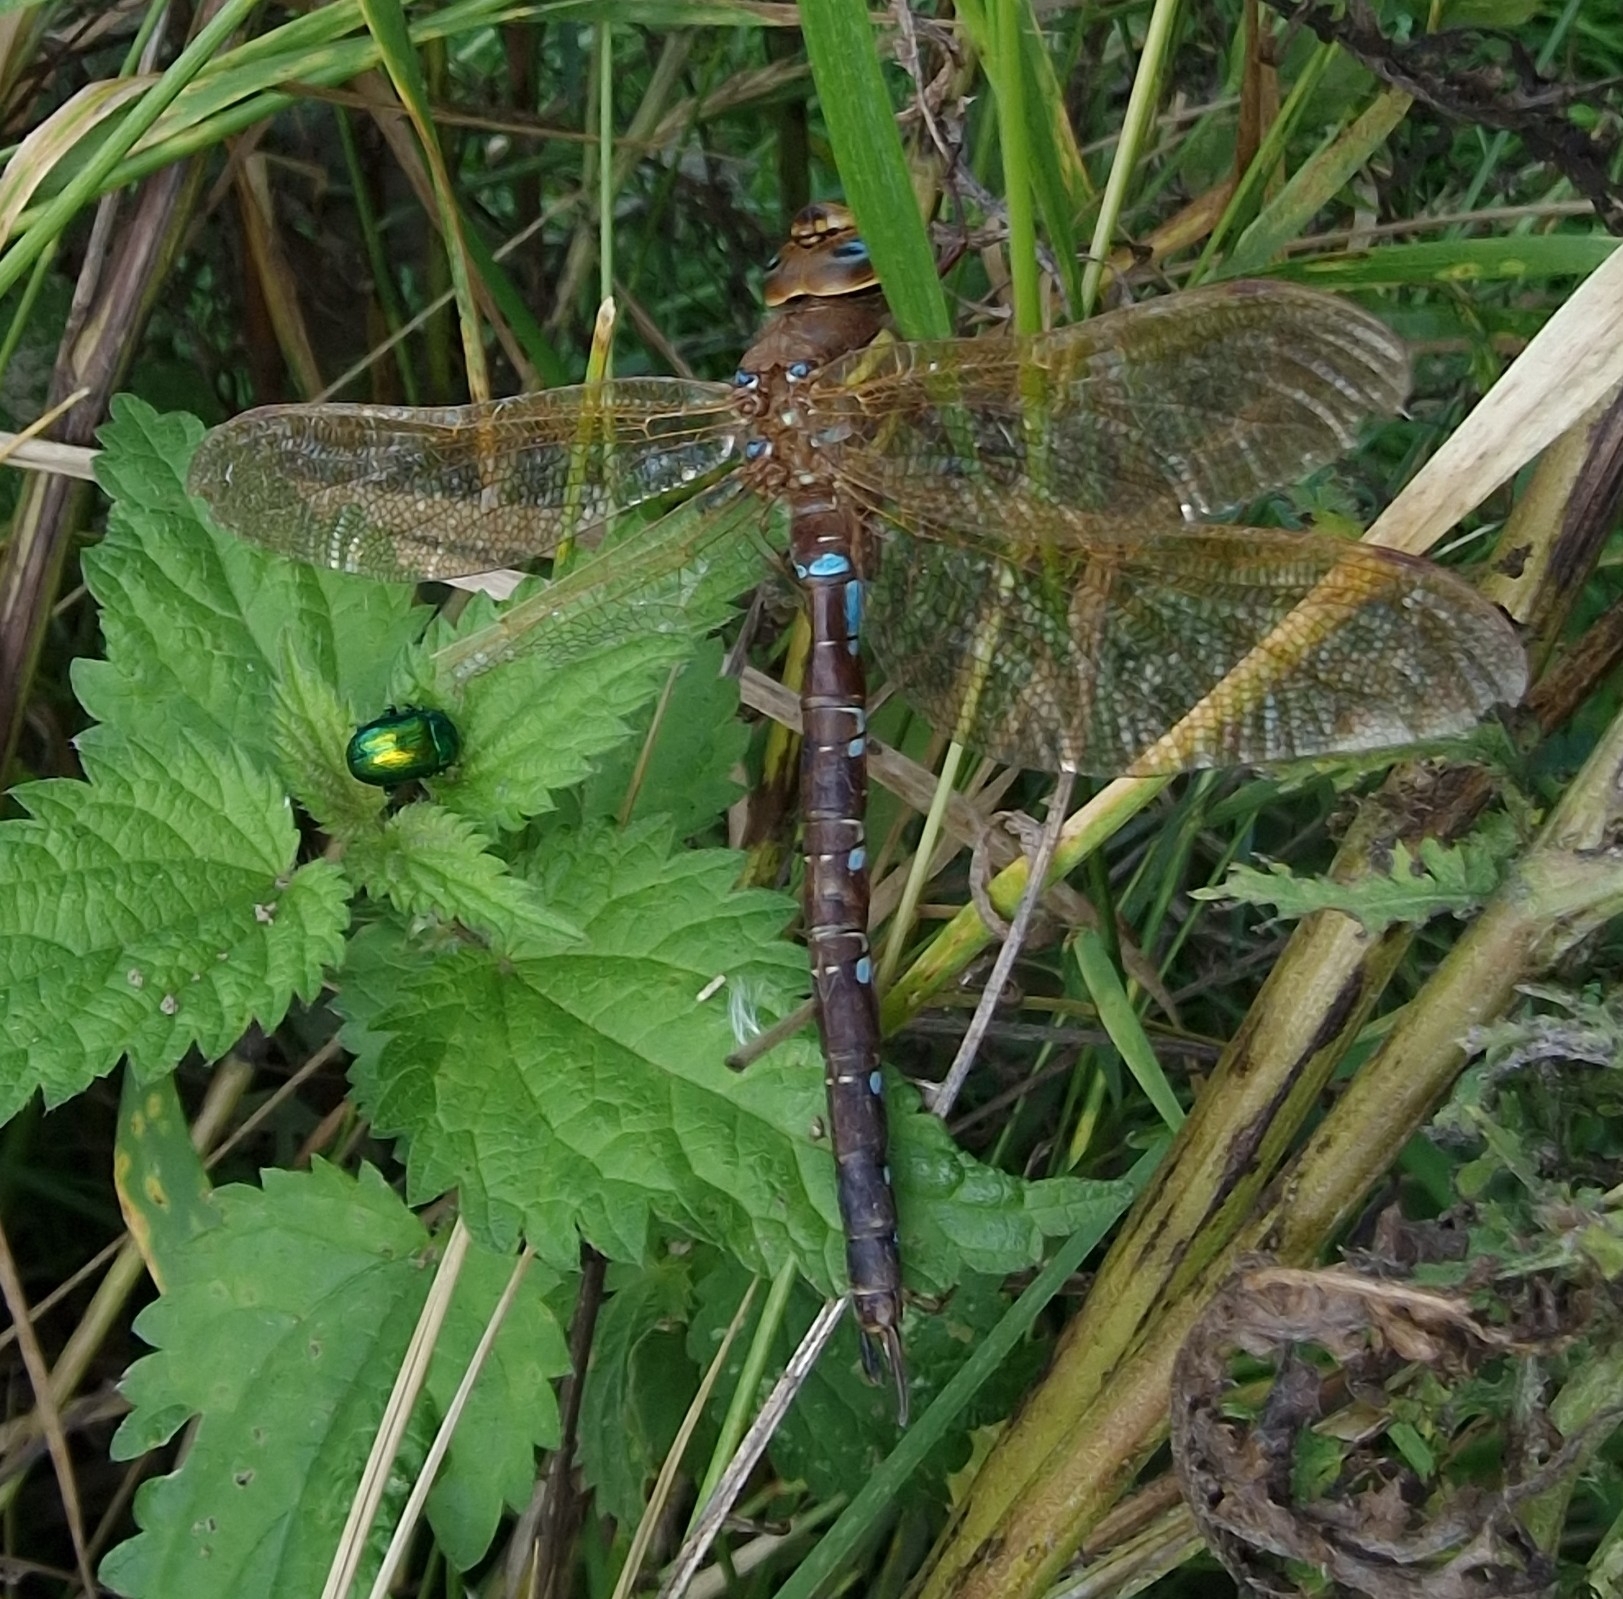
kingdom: Animalia
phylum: Arthropoda
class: Insecta
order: Odonata
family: Aeshnidae
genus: Aeshna
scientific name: Aeshna grandis
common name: Brown hawker
